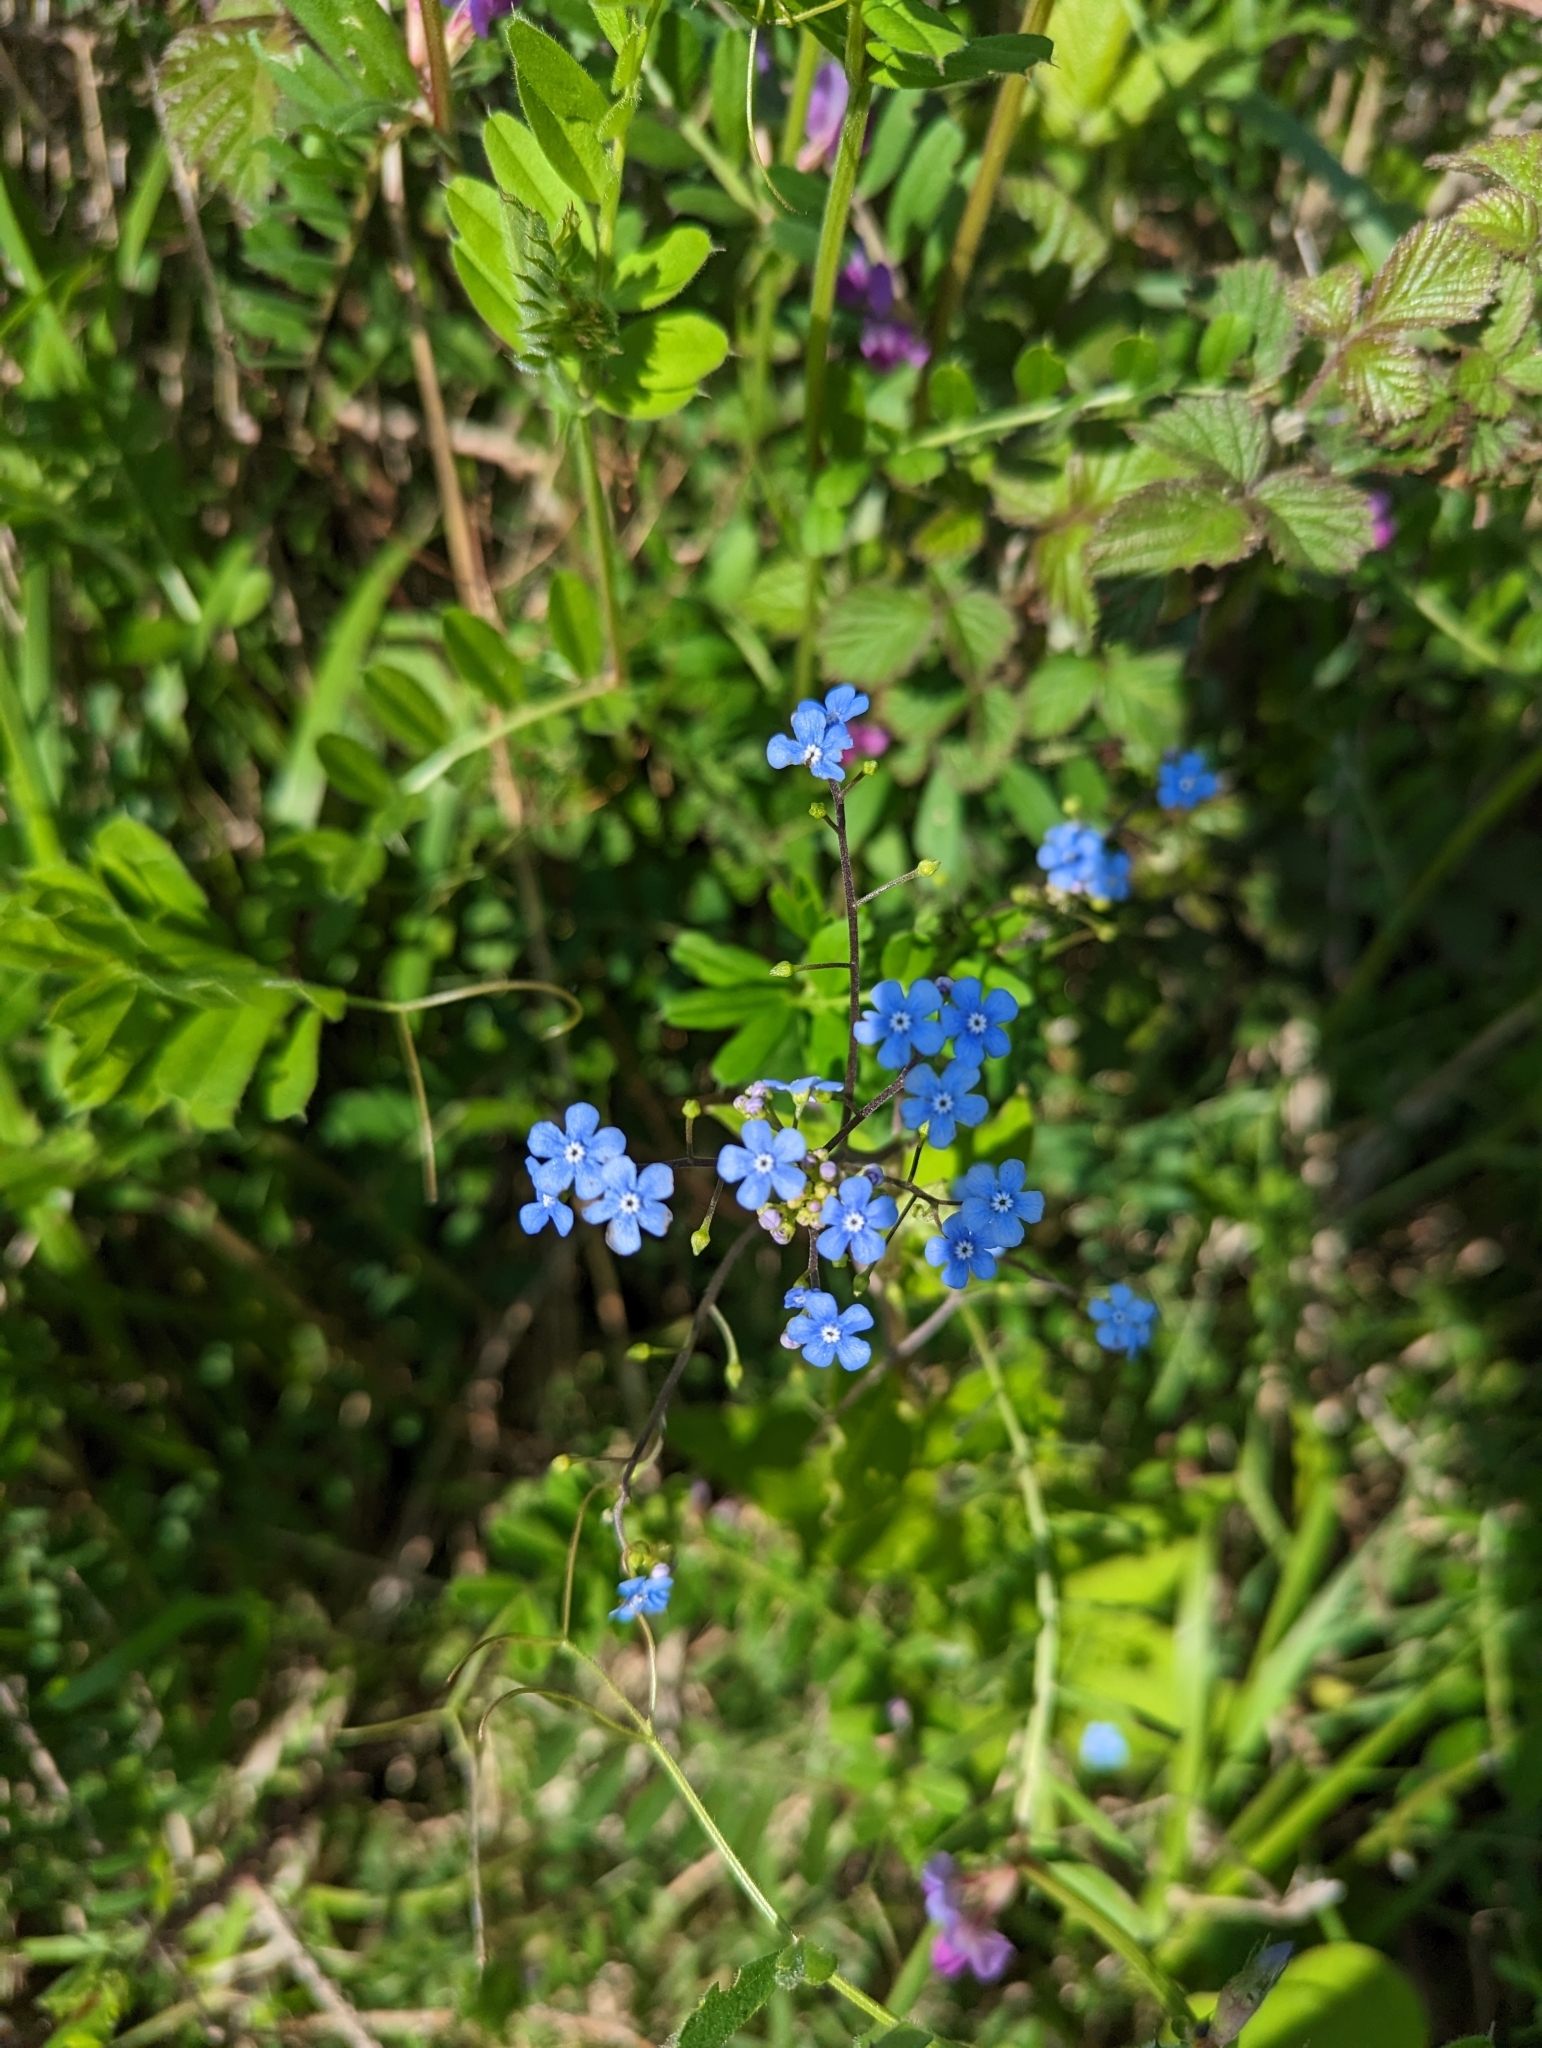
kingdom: Plantae
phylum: Tracheophyta
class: Magnoliopsida
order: Boraginales
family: Boraginaceae
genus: Brunnera
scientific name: Brunnera macrophylla
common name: Great forget-me-not
